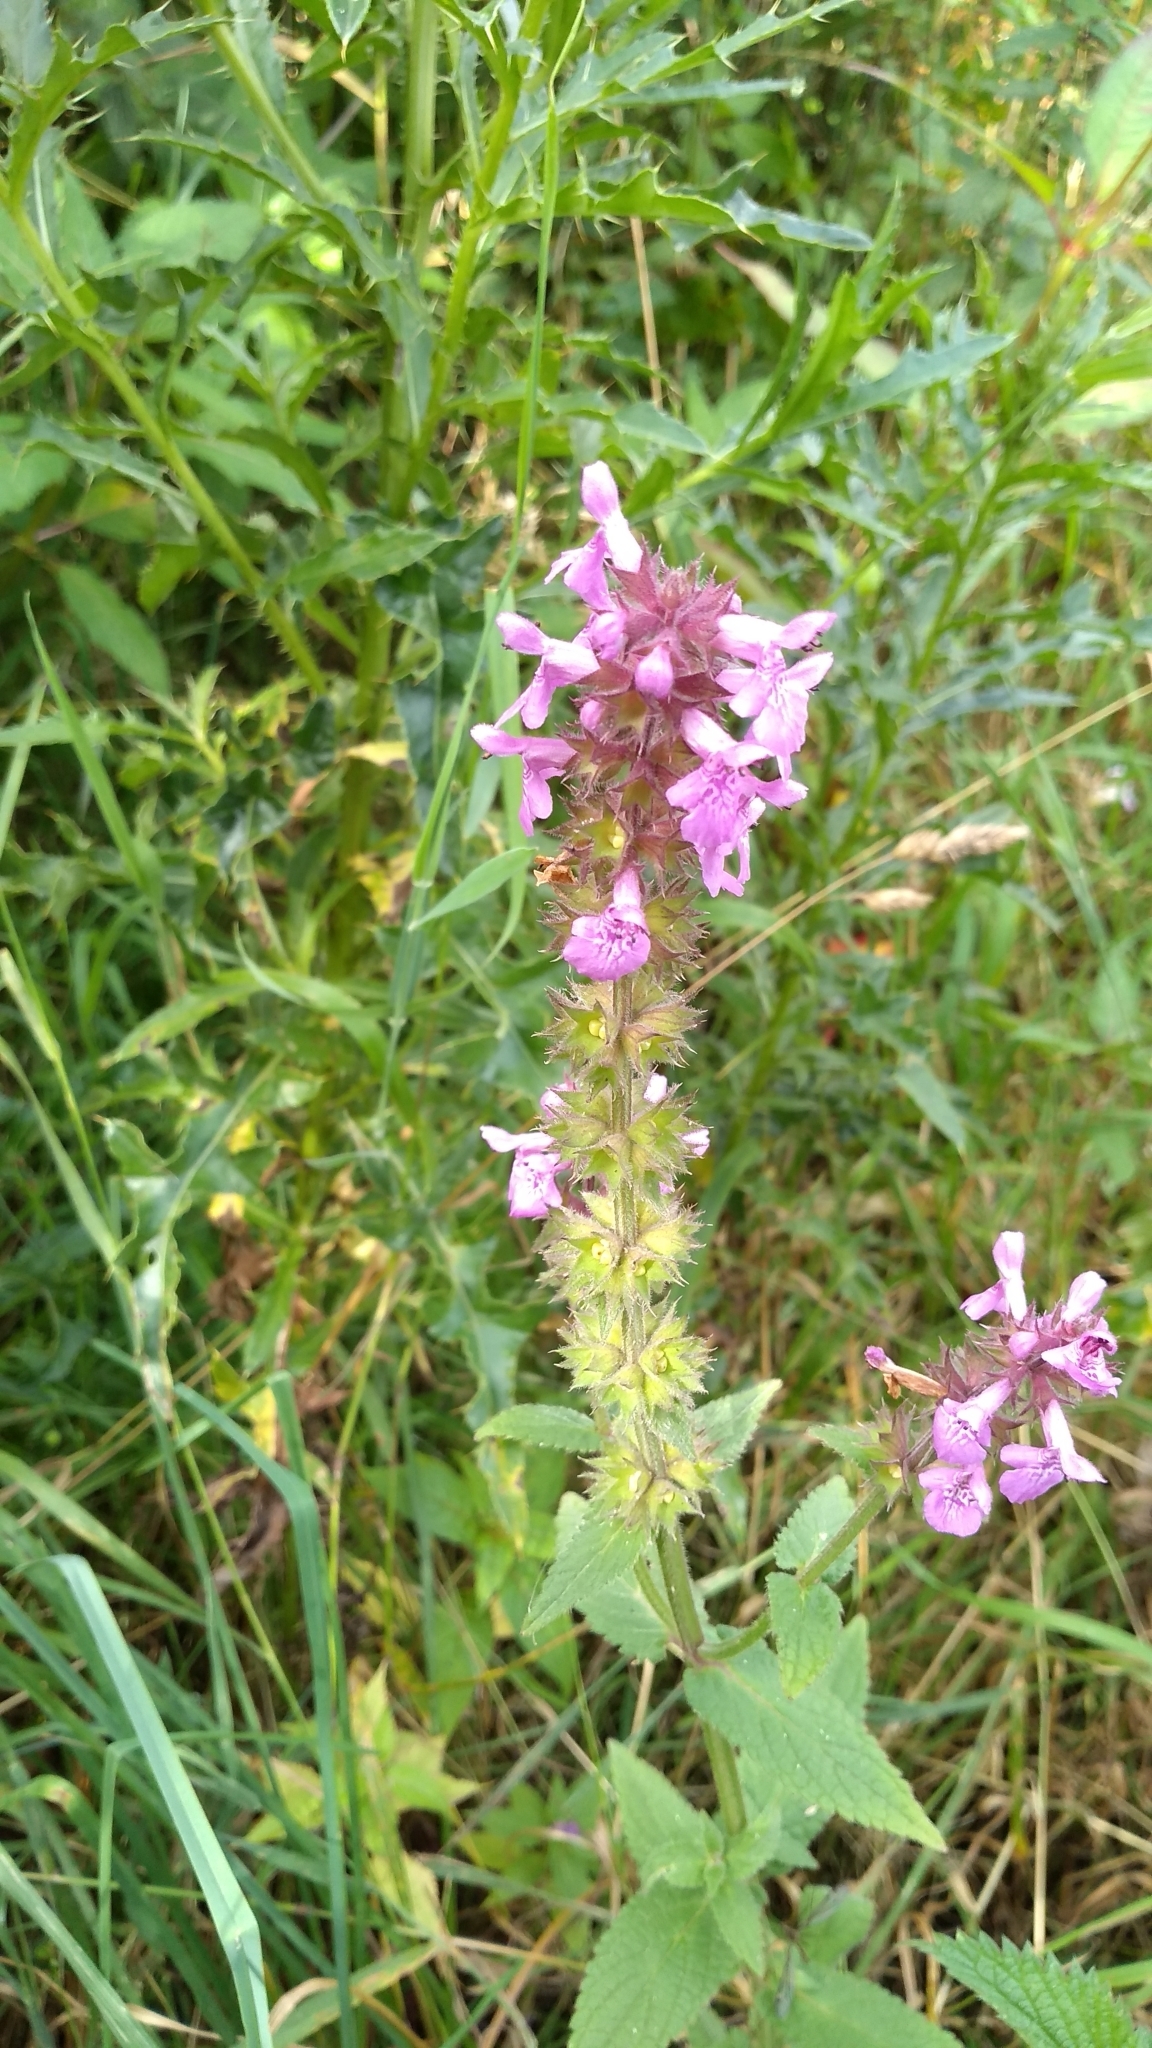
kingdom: Plantae
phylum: Tracheophyta
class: Magnoliopsida
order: Lamiales
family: Lamiaceae
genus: Stachys
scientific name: Stachys palustris
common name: Marsh woundwort
